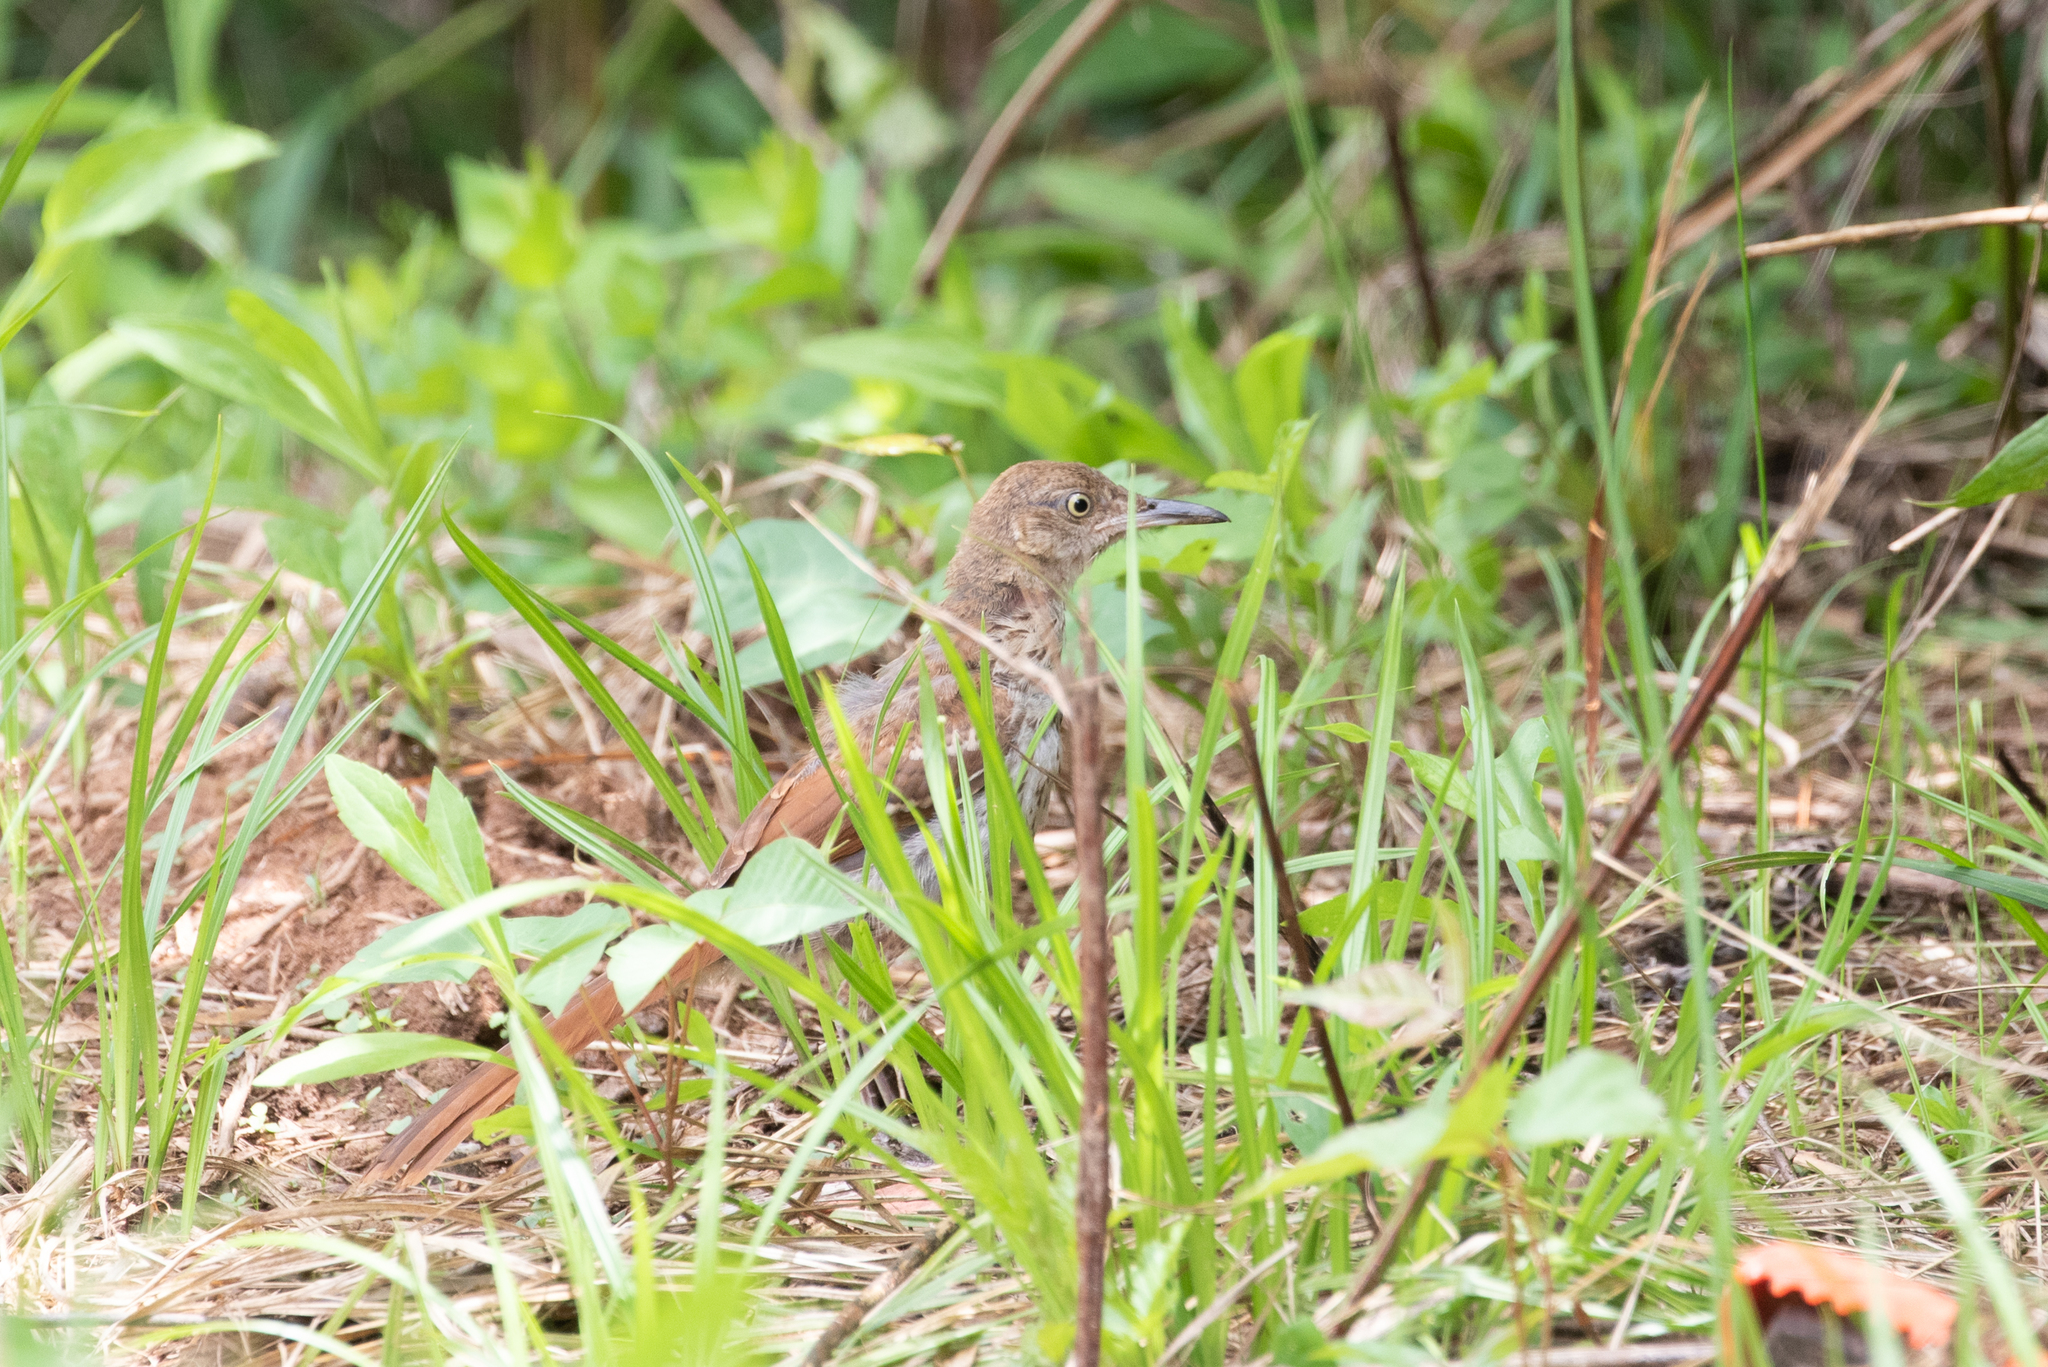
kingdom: Animalia
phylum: Chordata
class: Aves
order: Passeriformes
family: Mimidae
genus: Toxostoma
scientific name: Toxostoma rufum
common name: Brown thrasher
